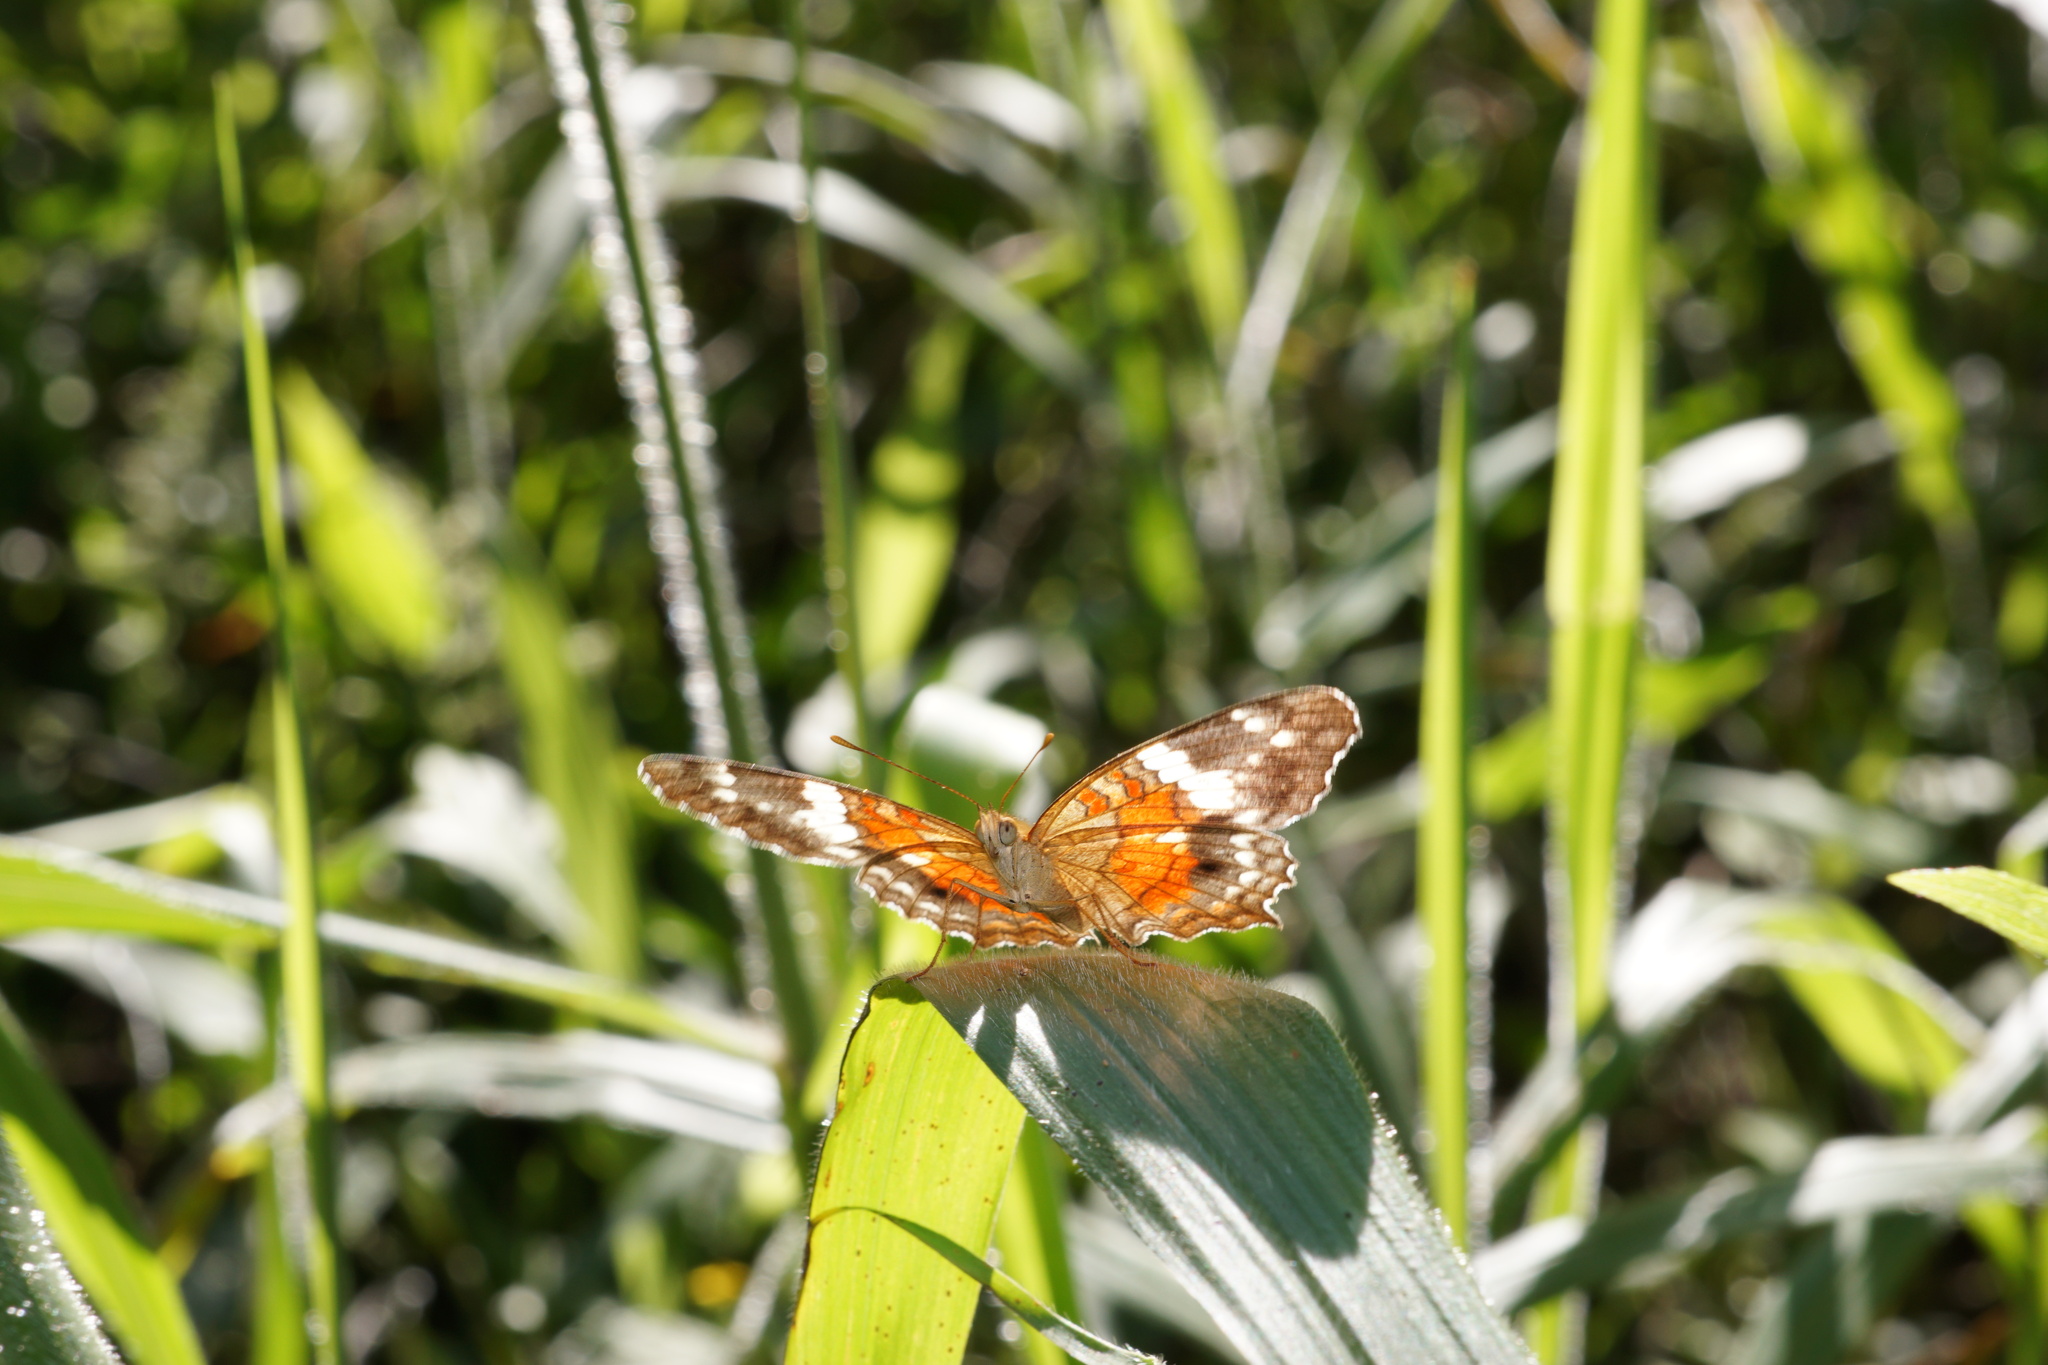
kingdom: Animalia
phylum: Arthropoda
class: Insecta
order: Lepidoptera
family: Nymphalidae
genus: Anartia
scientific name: Anartia amathea
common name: Red peacock
